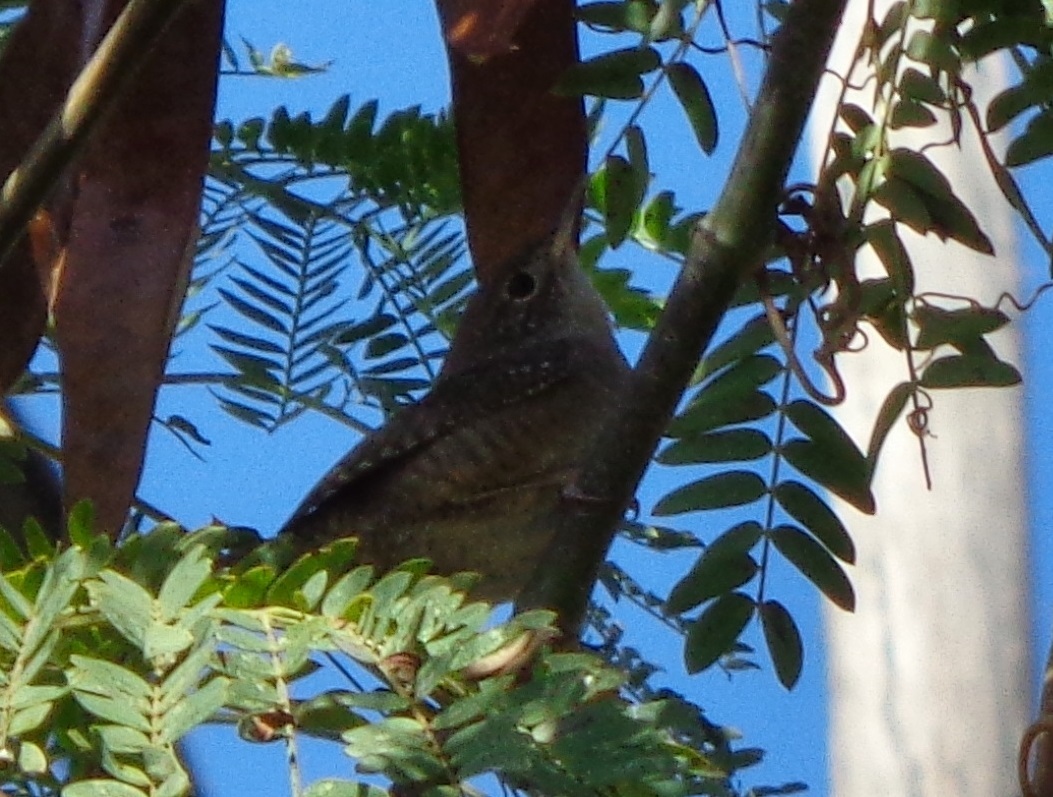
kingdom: Animalia
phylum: Chordata
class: Aves
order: Passeriformes
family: Troglodytidae
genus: Troglodytes
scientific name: Troglodytes aedon
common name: House wren
